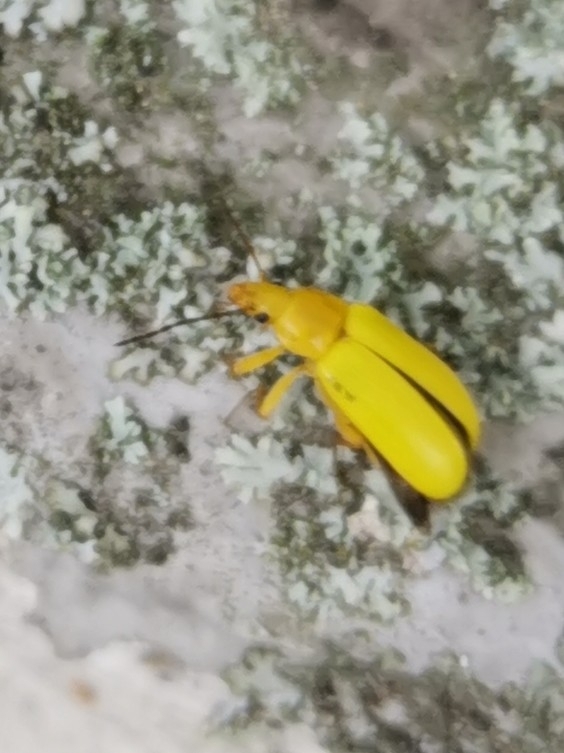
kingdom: Animalia
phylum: Arthropoda
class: Insecta
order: Coleoptera
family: Tenebrionidae
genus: Cteniopus
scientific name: Cteniopus sulphureus
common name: Sulphur beetle
